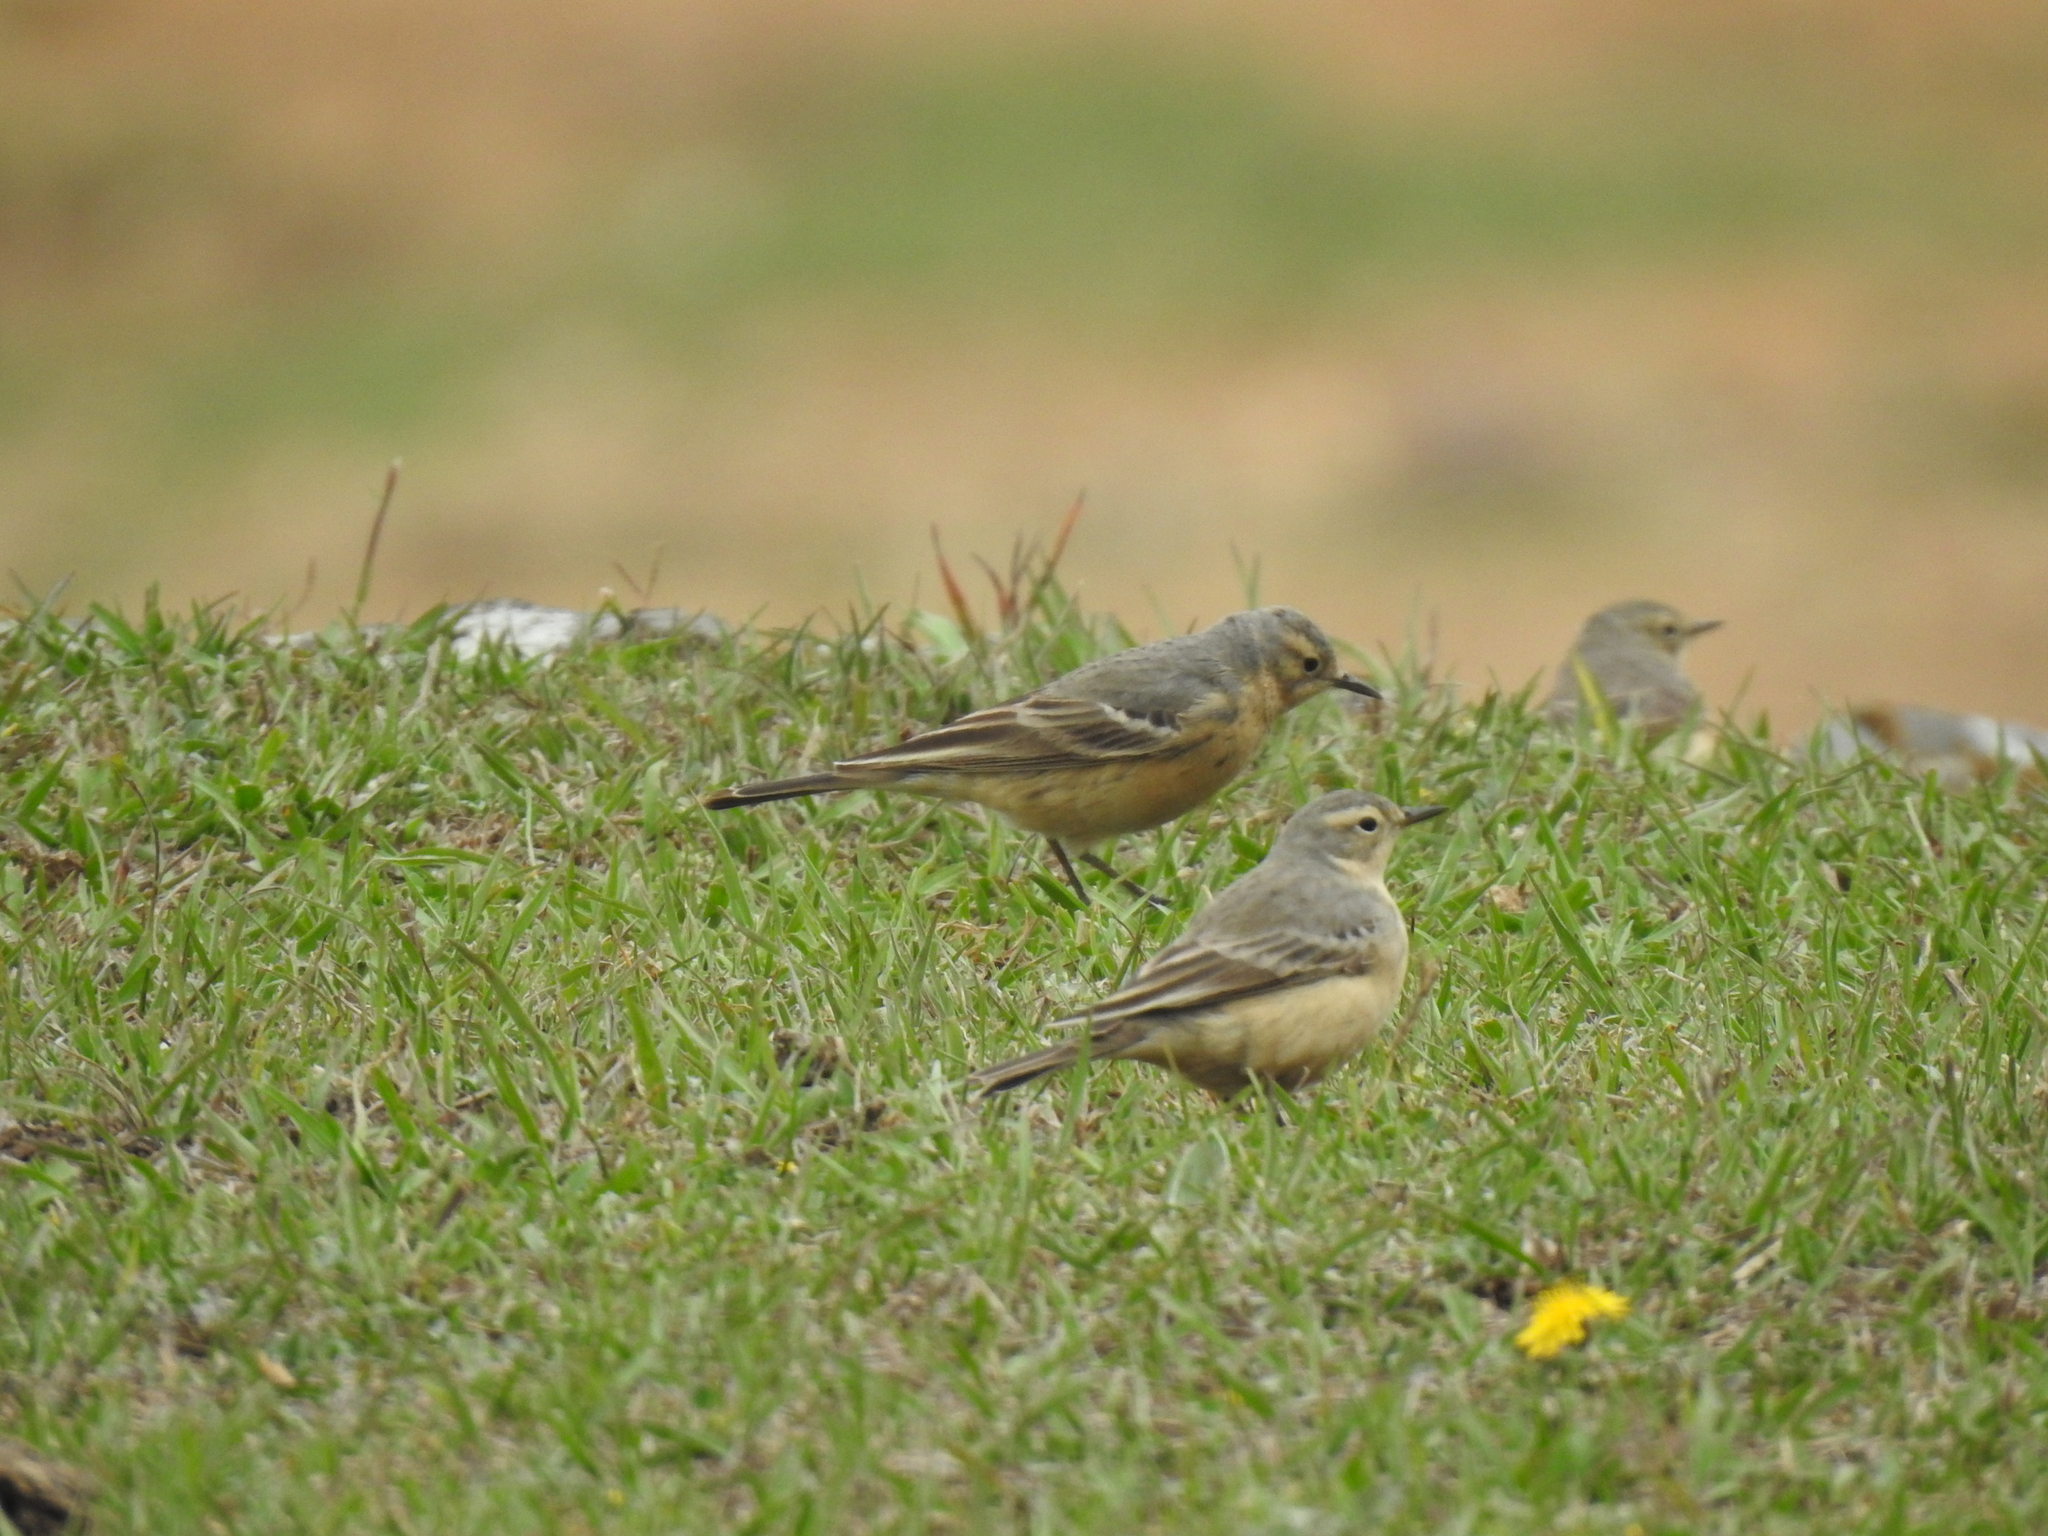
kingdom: Animalia
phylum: Chordata
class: Aves
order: Passeriformes
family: Motacillidae
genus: Anthus
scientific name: Anthus rubescens
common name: Buff-bellied pipit
